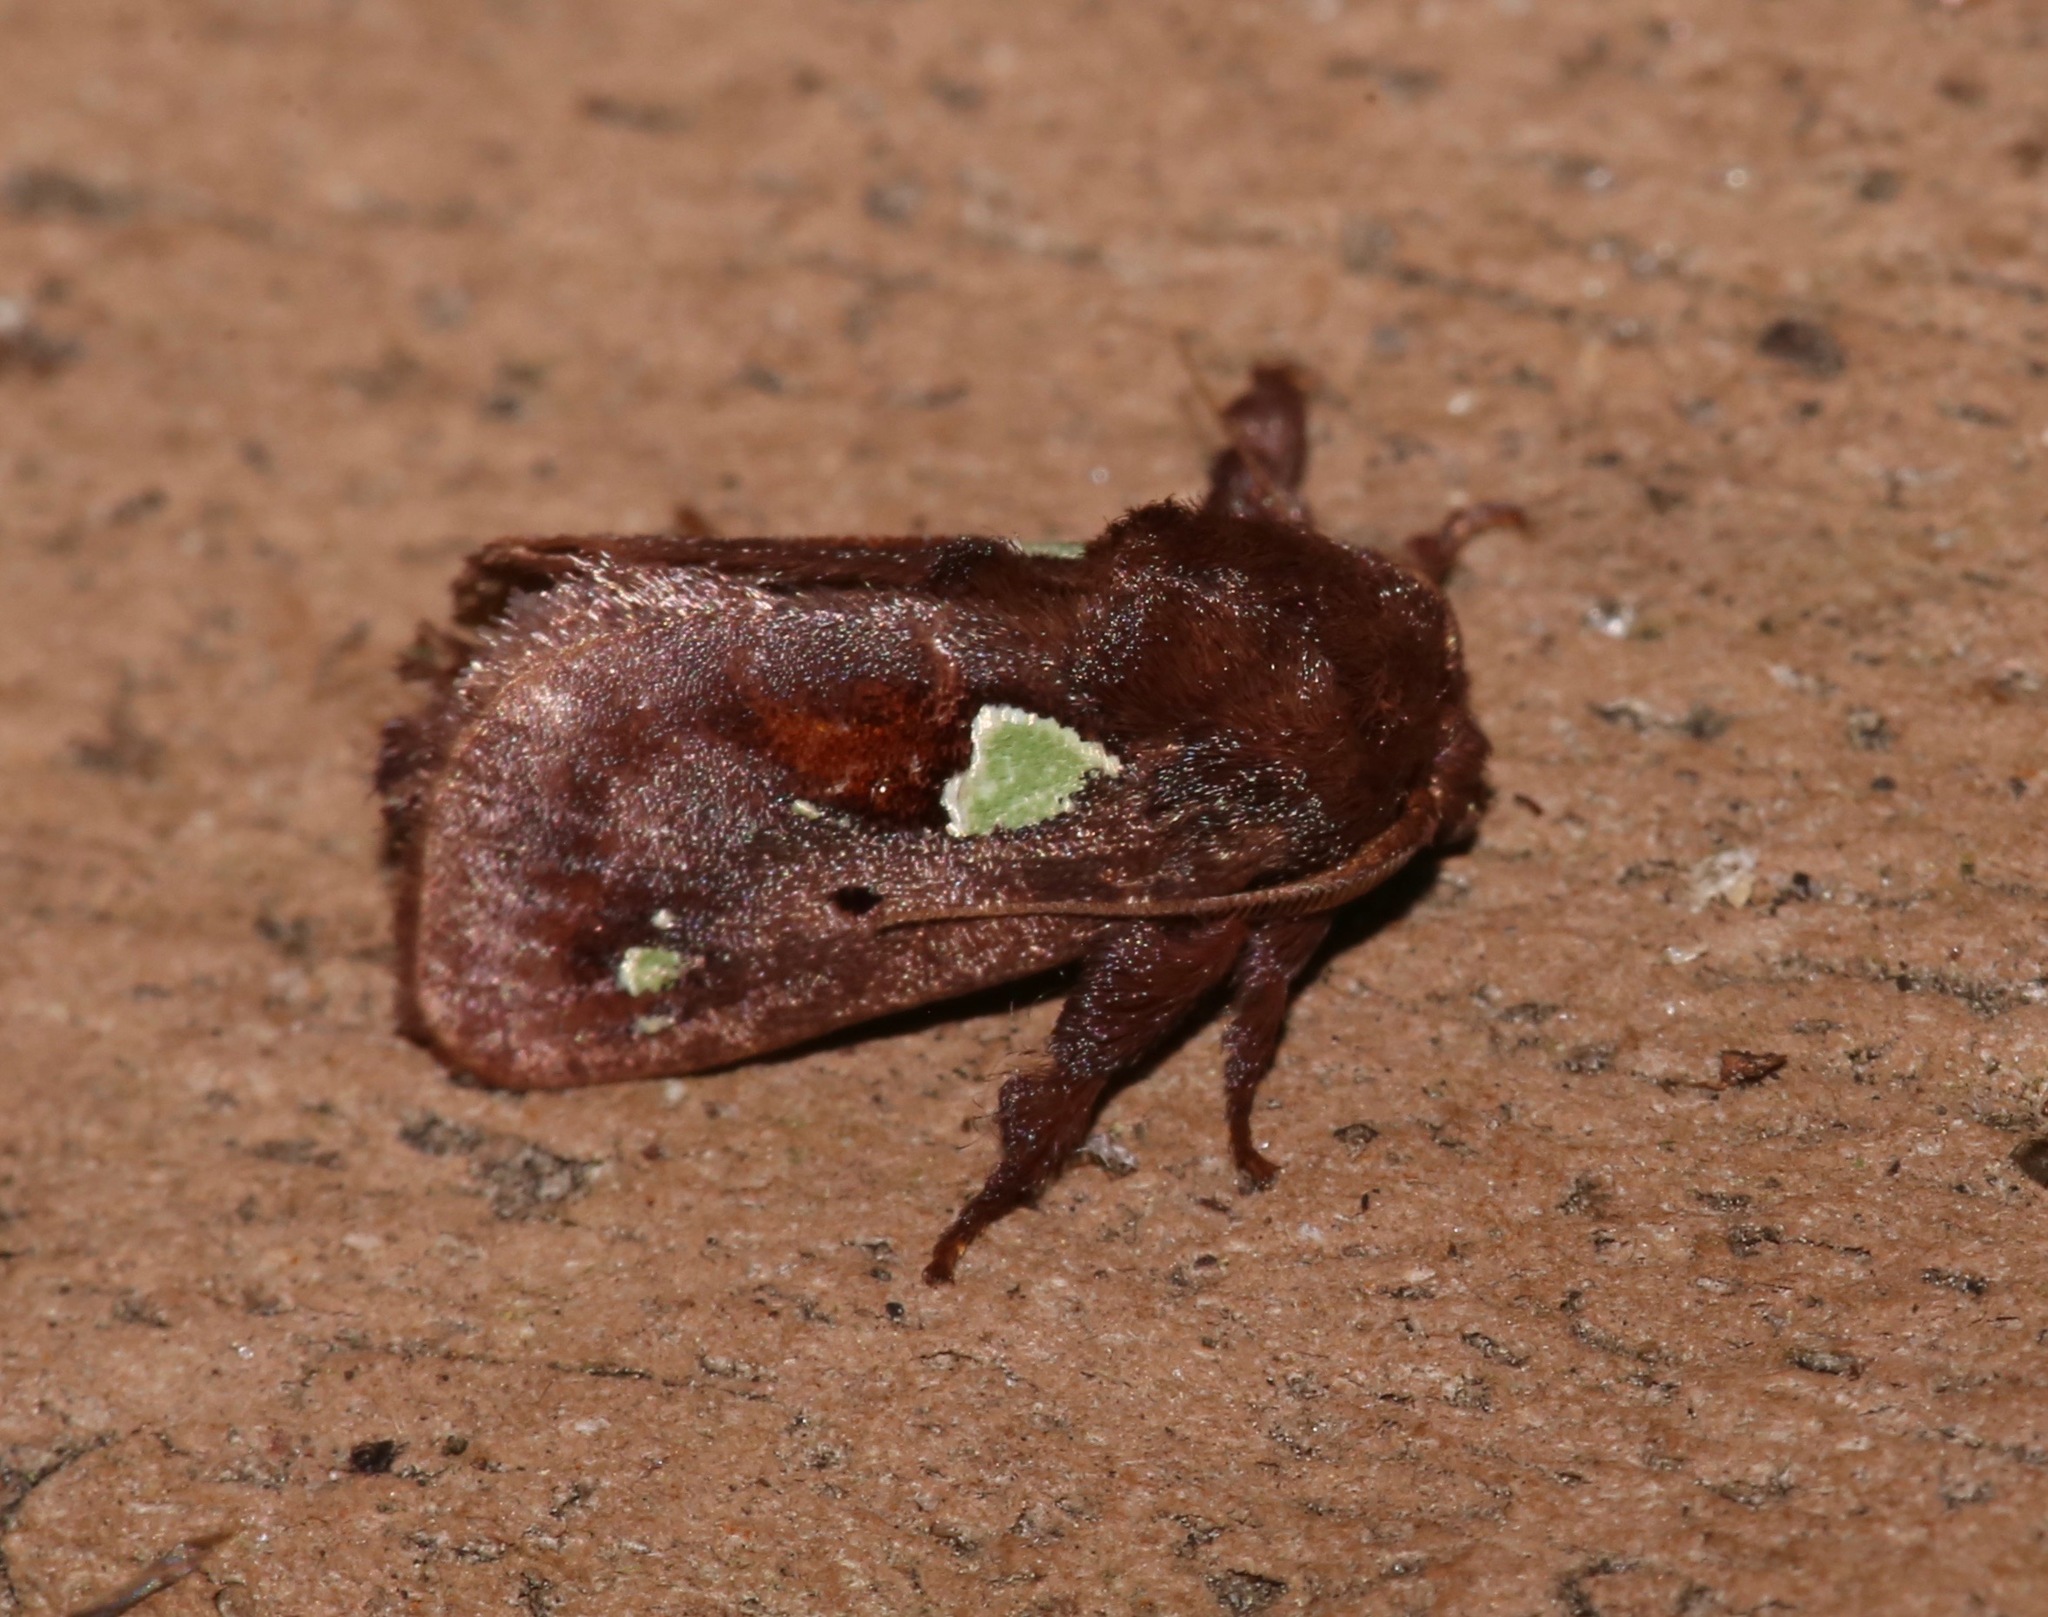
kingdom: Animalia
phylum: Arthropoda
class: Insecta
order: Lepidoptera
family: Limacodidae
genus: Euclea
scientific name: Euclea delphinii
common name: Spiny oak-slug moth
